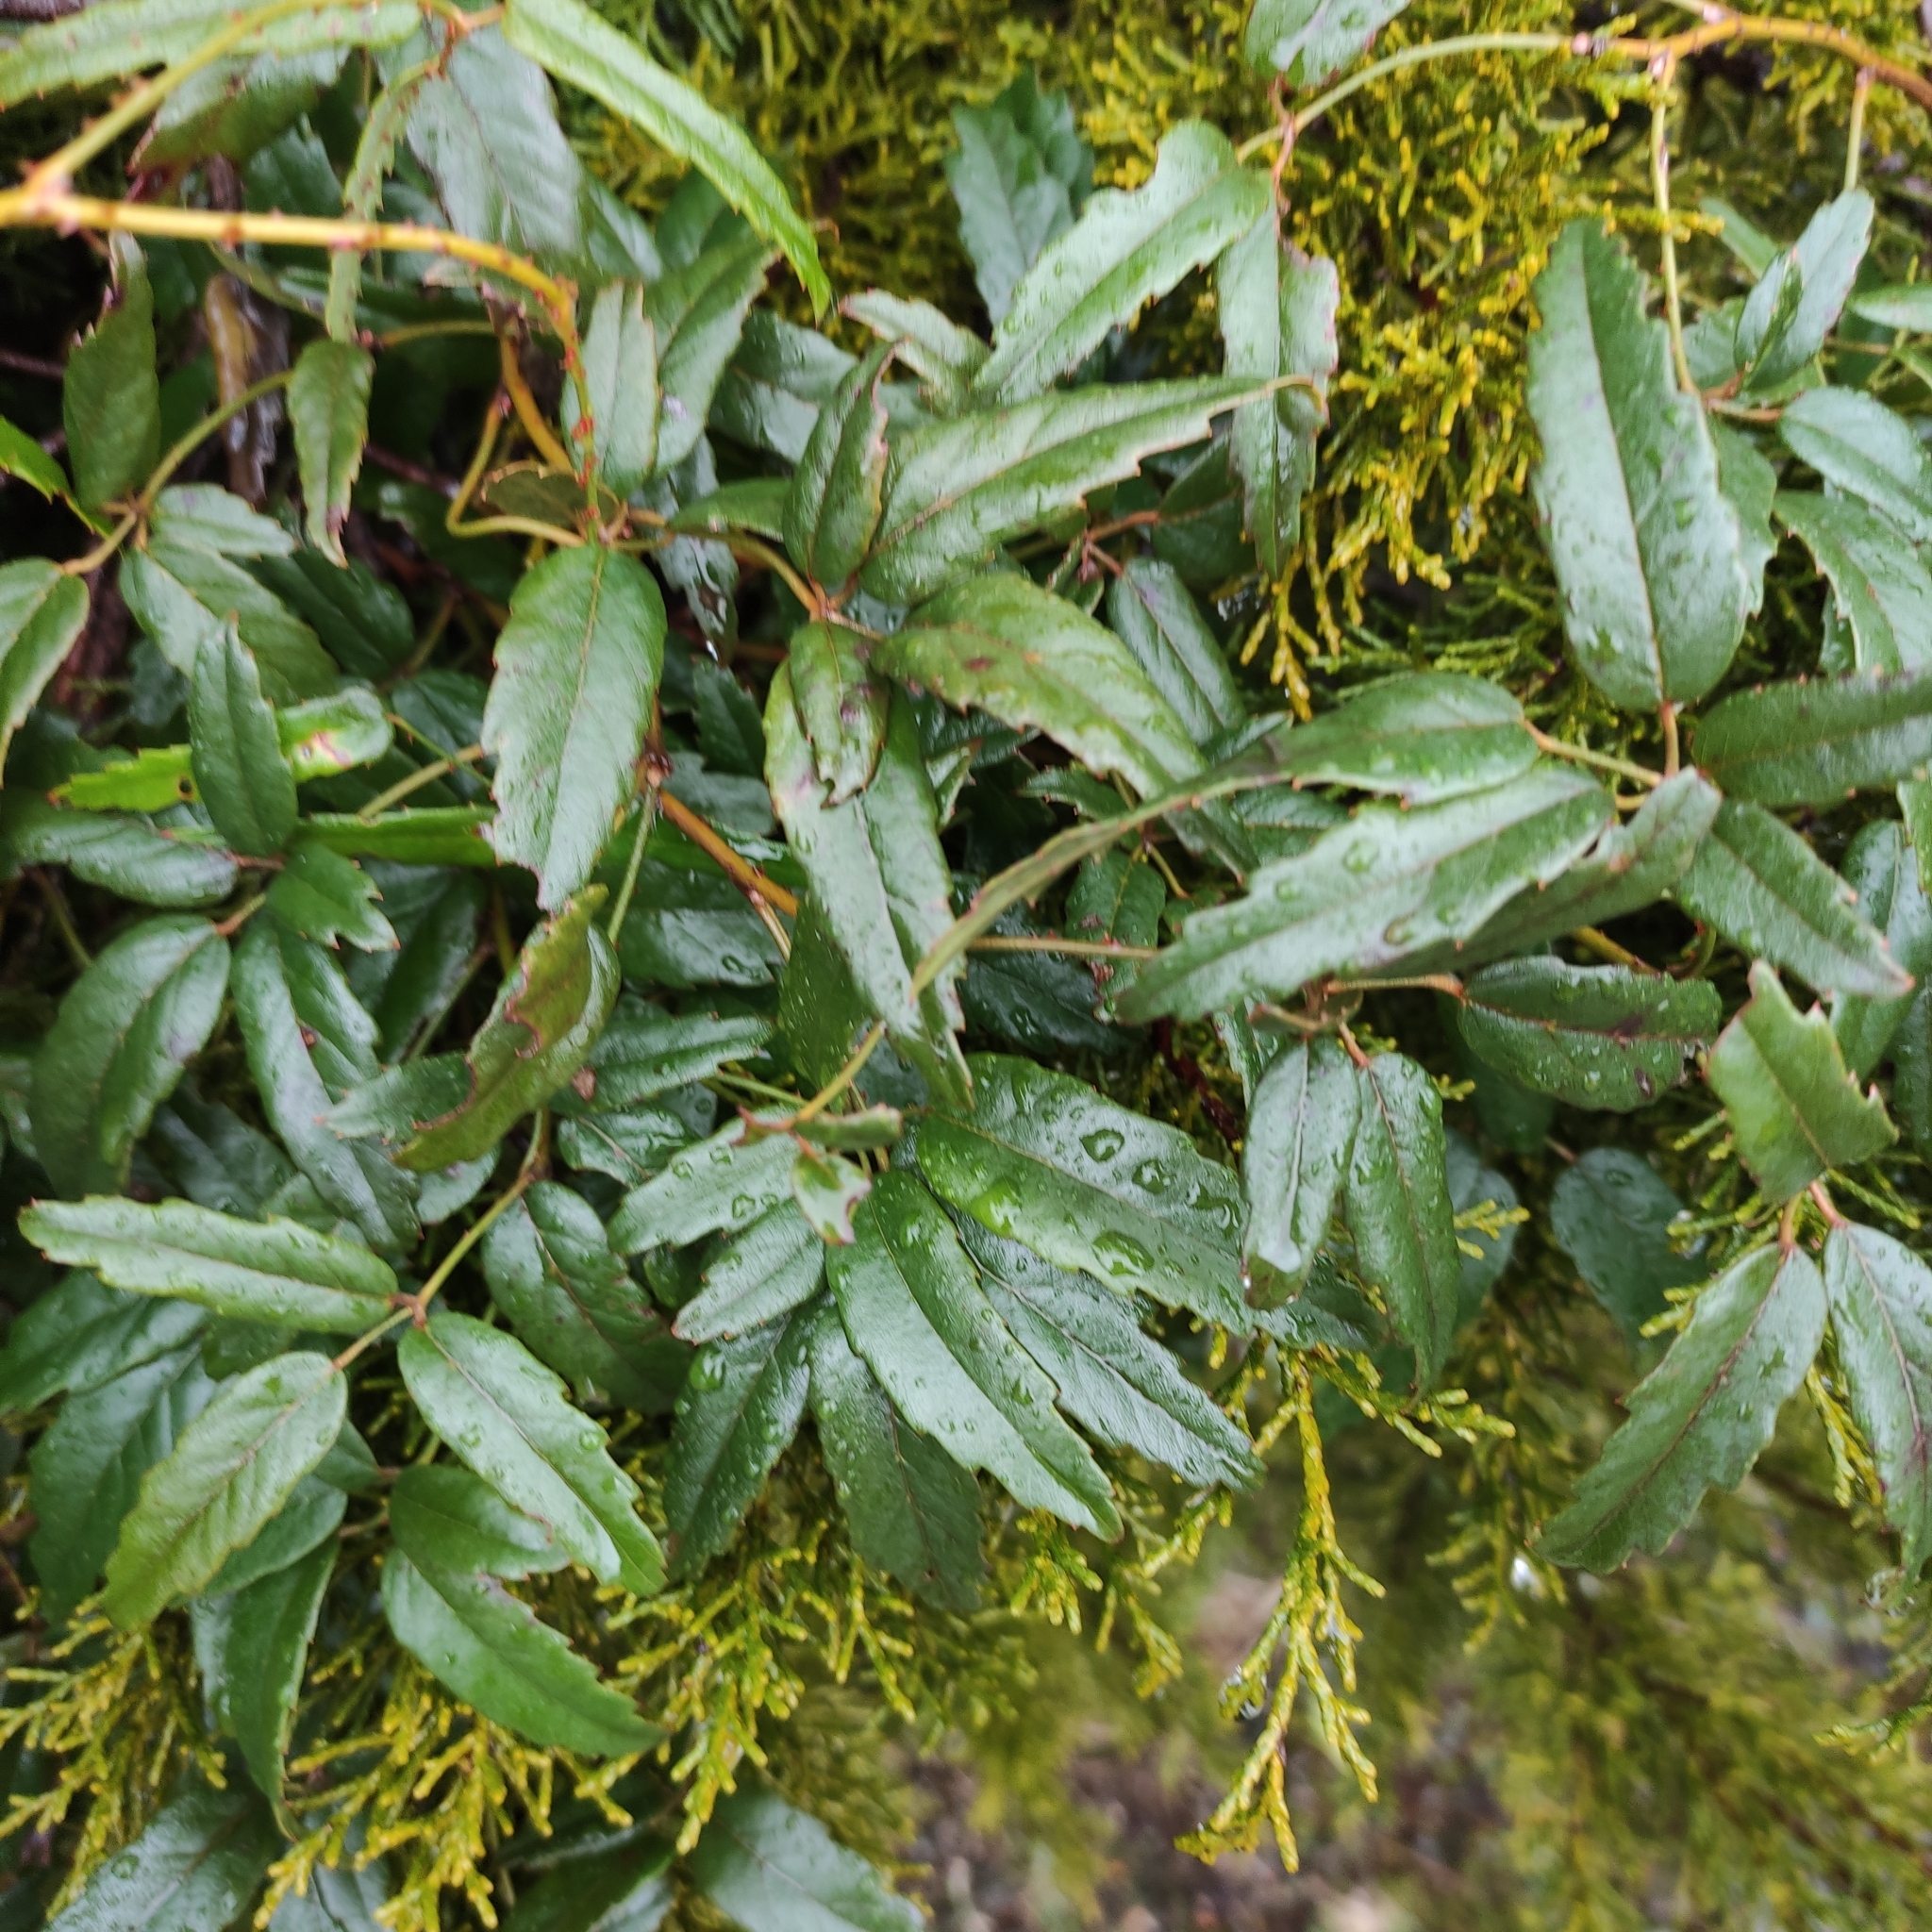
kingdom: Plantae
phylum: Tracheophyta
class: Magnoliopsida
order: Rosales
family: Rosaceae
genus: Rubus
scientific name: Rubus schmidelioides
